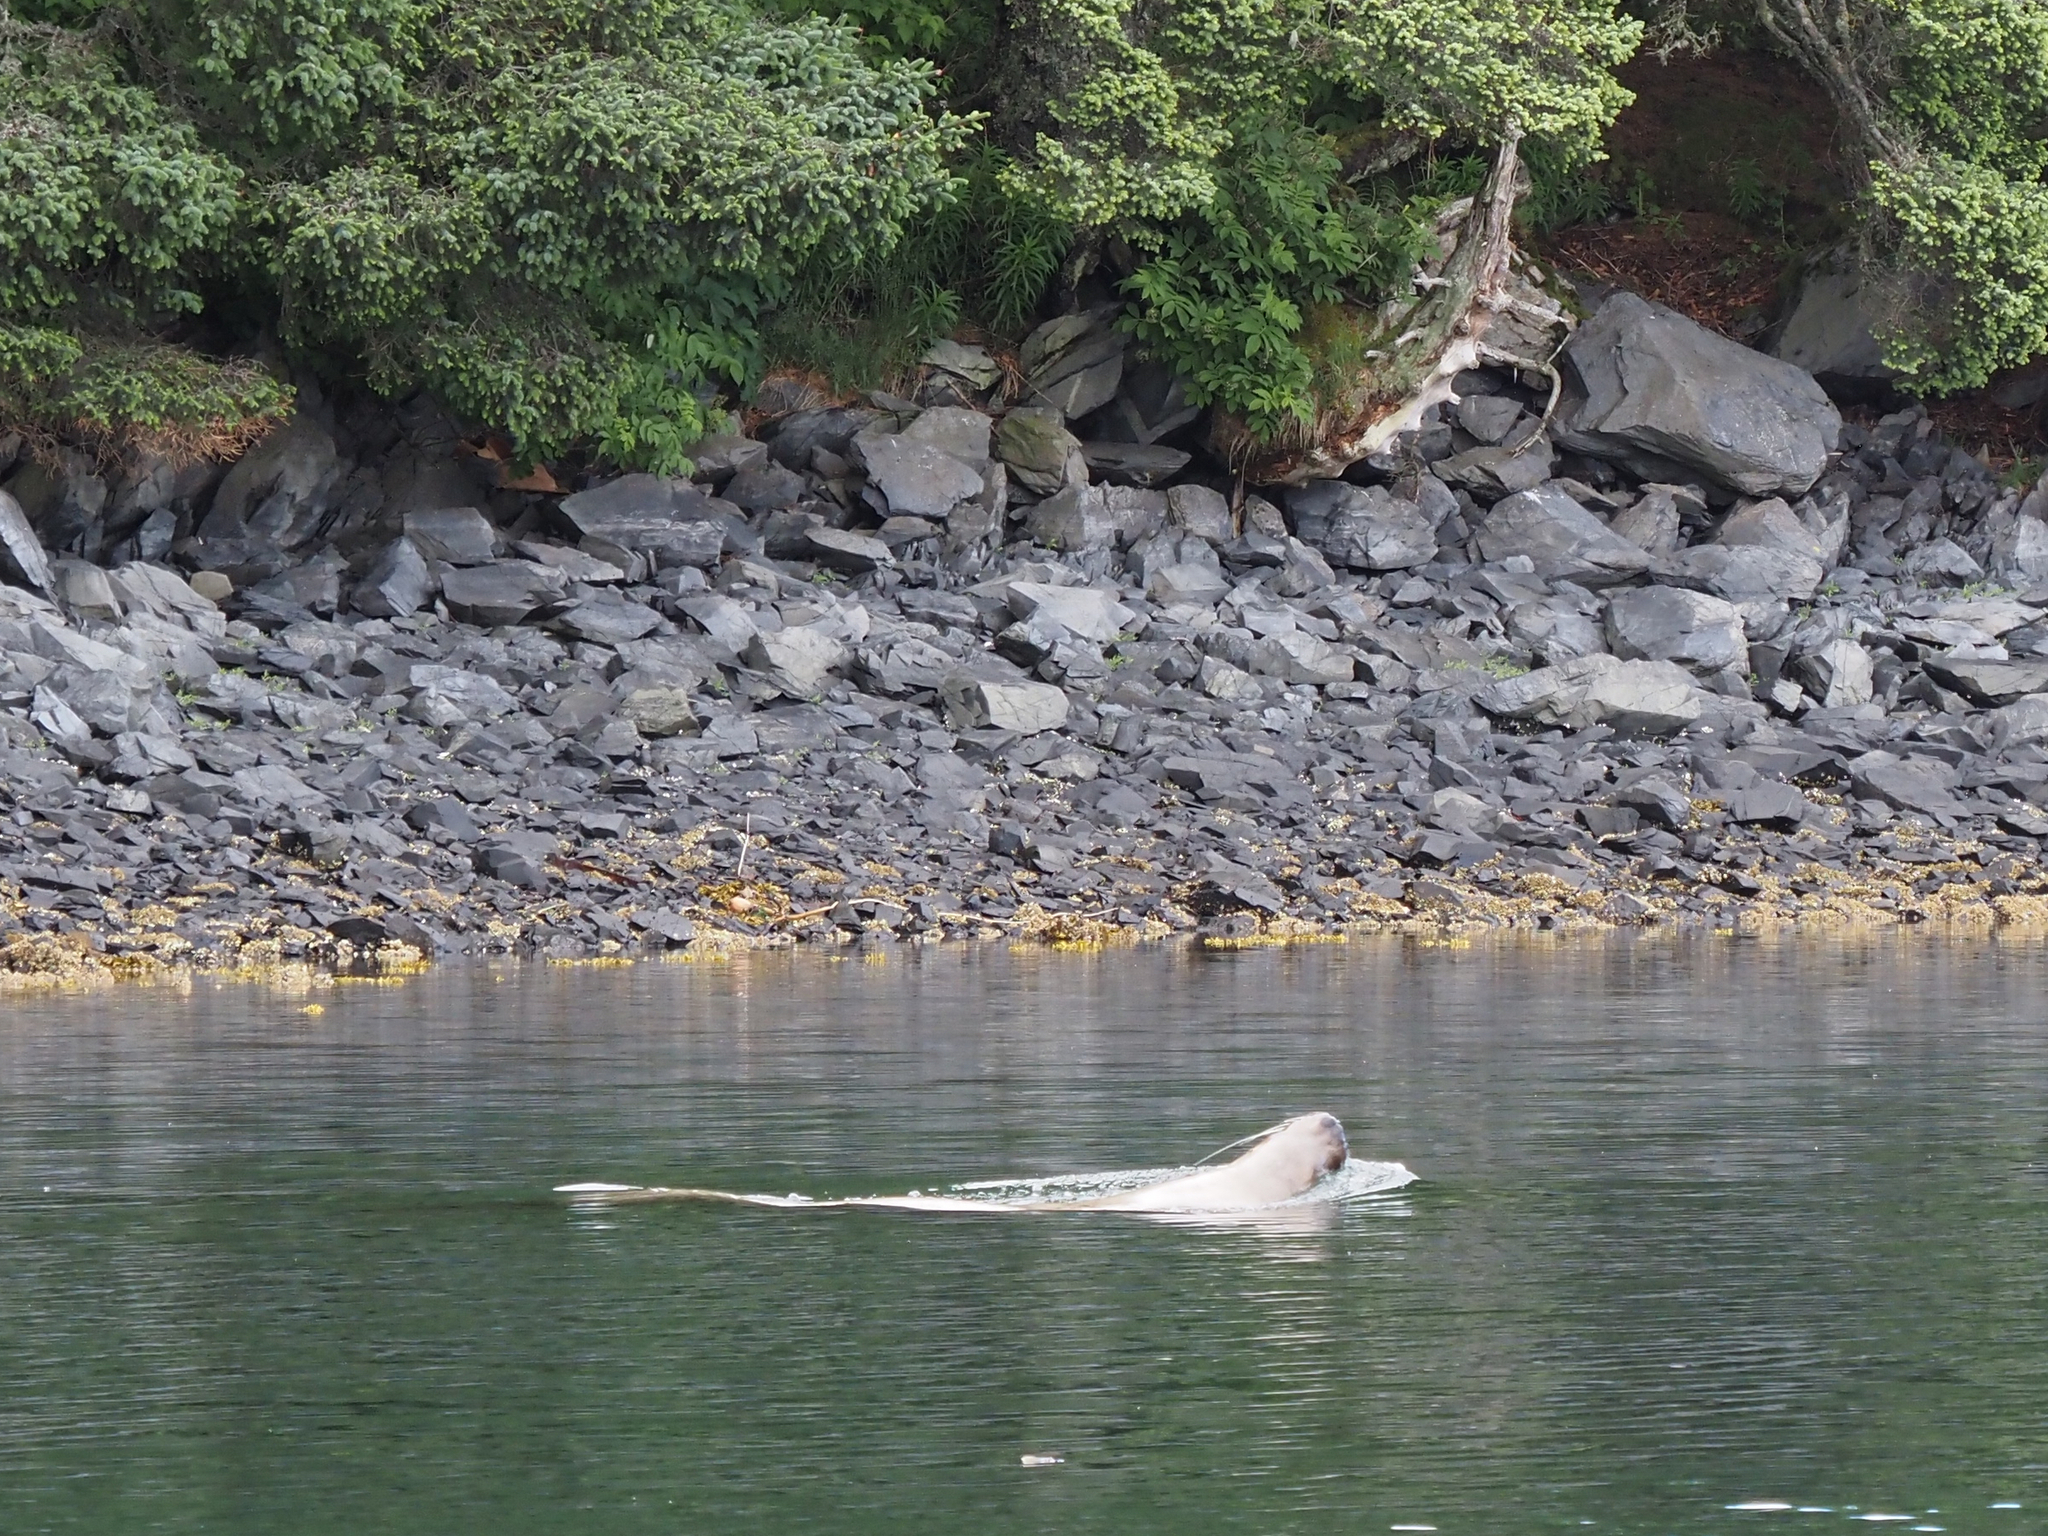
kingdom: Animalia
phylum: Chordata
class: Mammalia
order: Carnivora
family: Otariidae
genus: Eumetopias
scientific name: Eumetopias jubatus
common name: Steller sea lion
